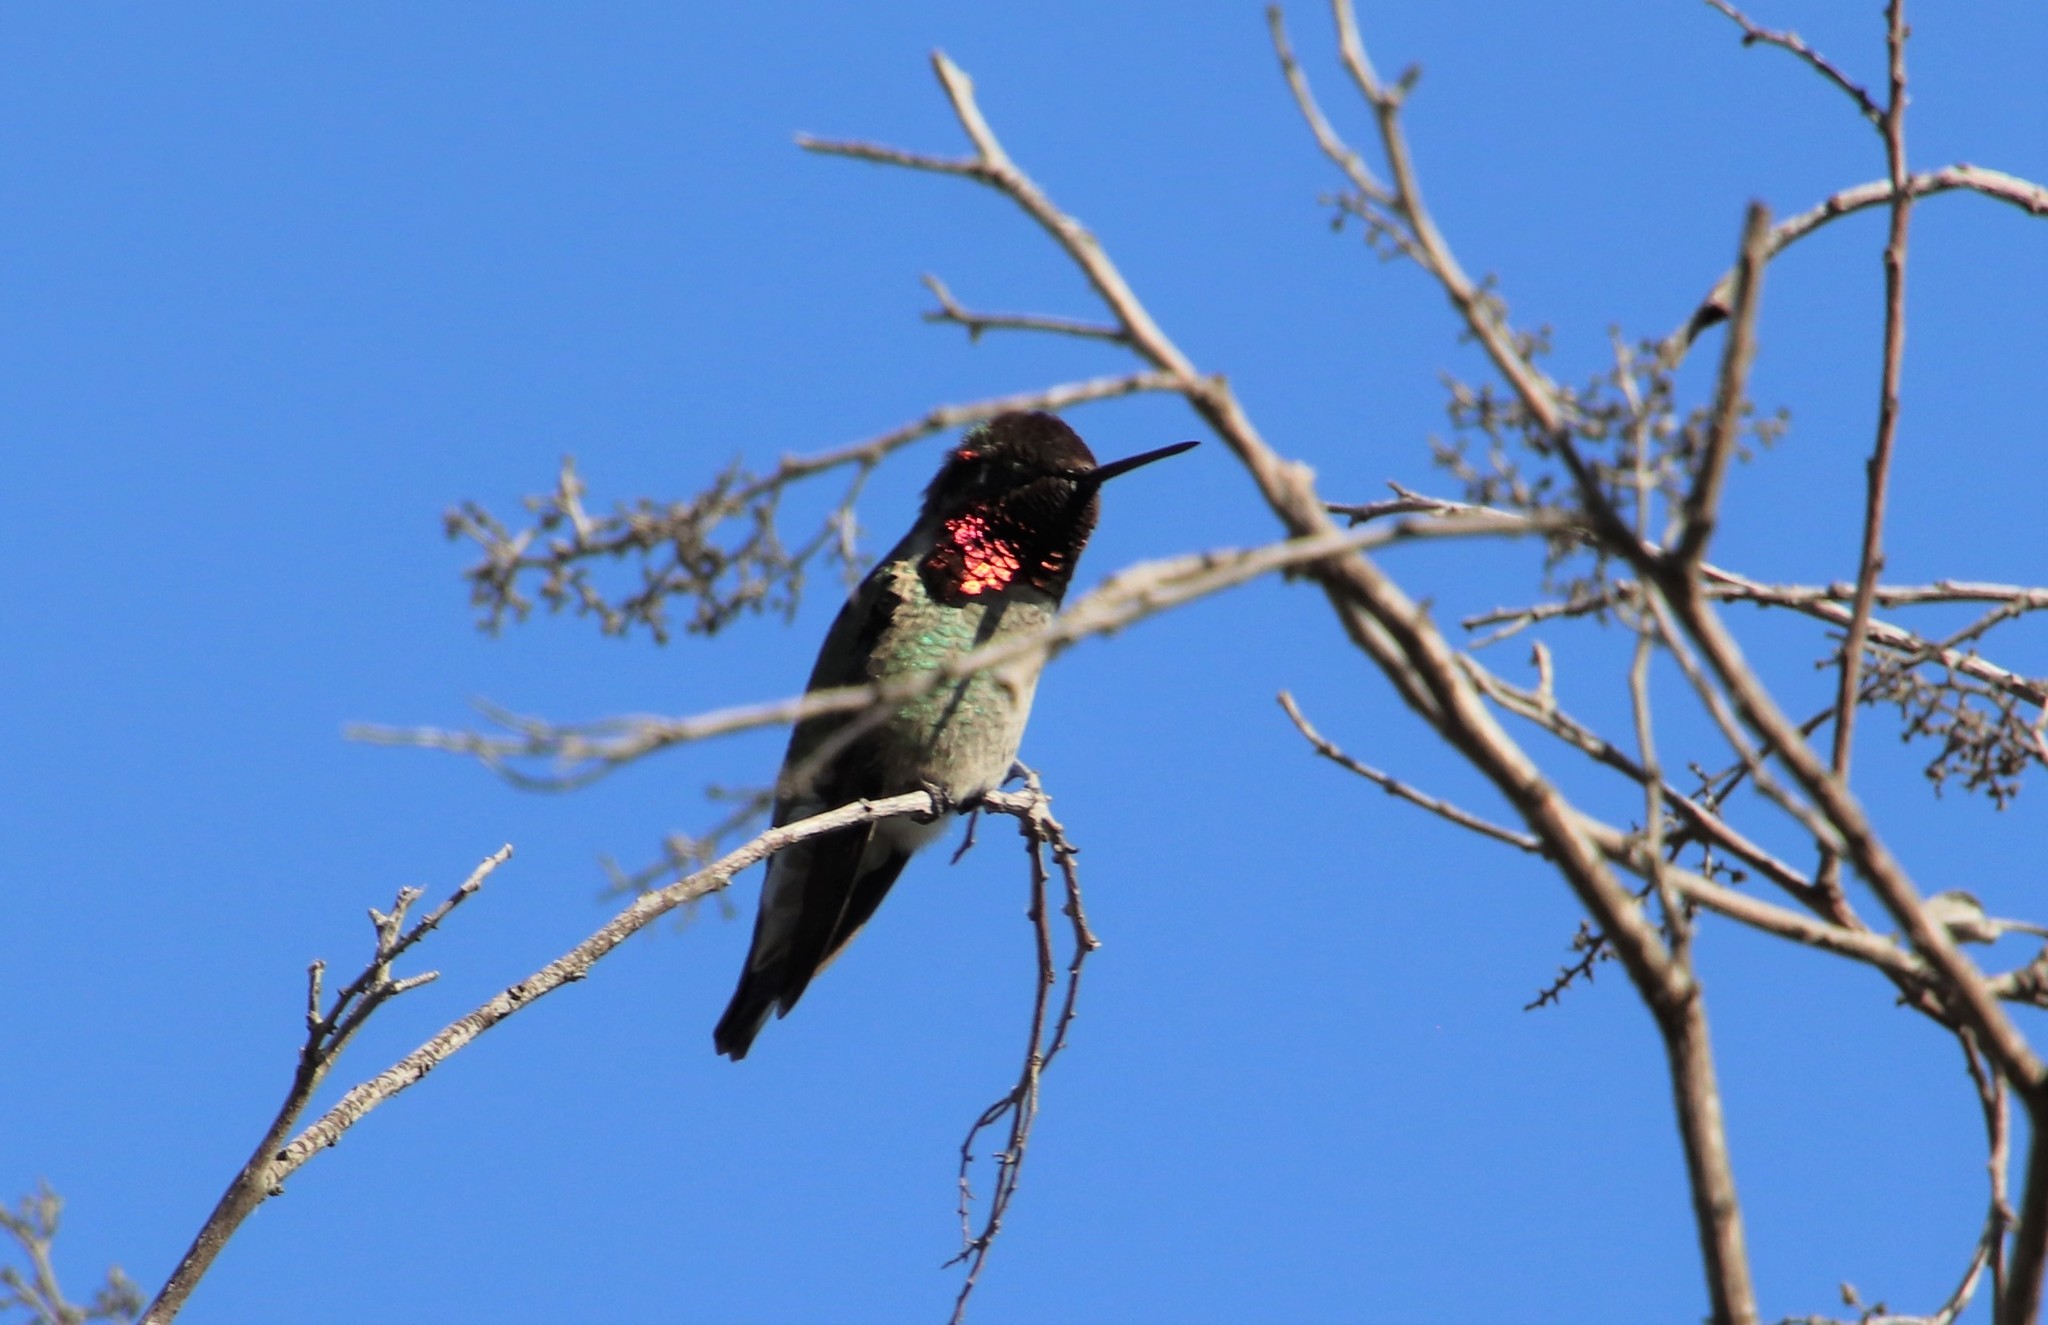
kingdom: Animalia
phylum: Chordata
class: Aves
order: Apodiformes
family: Trochilidae
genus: Calypte
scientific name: Calypte anna
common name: Anna's hummingbird
